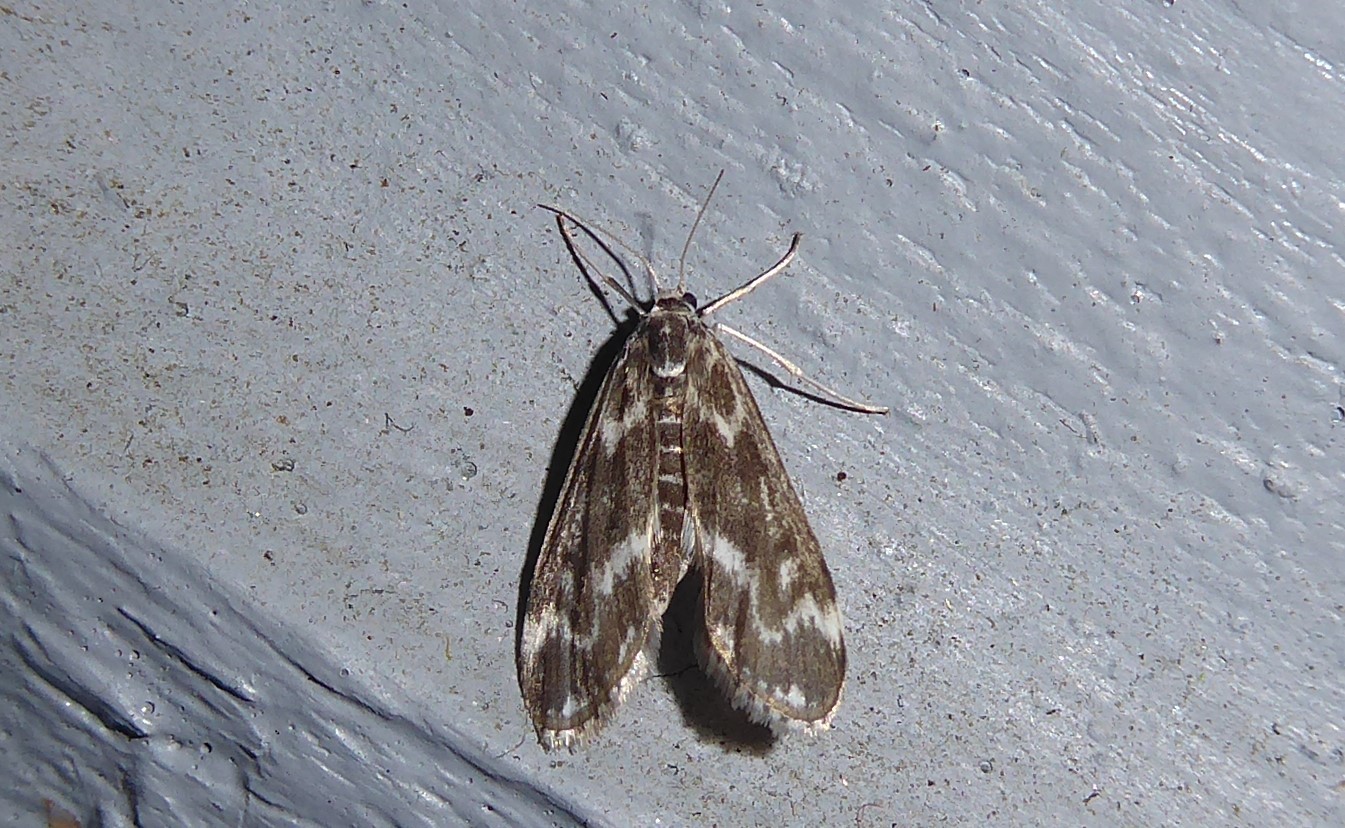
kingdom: Animalia
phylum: Arthropoda
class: Insecta
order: Lepidoptera
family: Crambidae
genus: Hygraula
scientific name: Hygraula nitens
